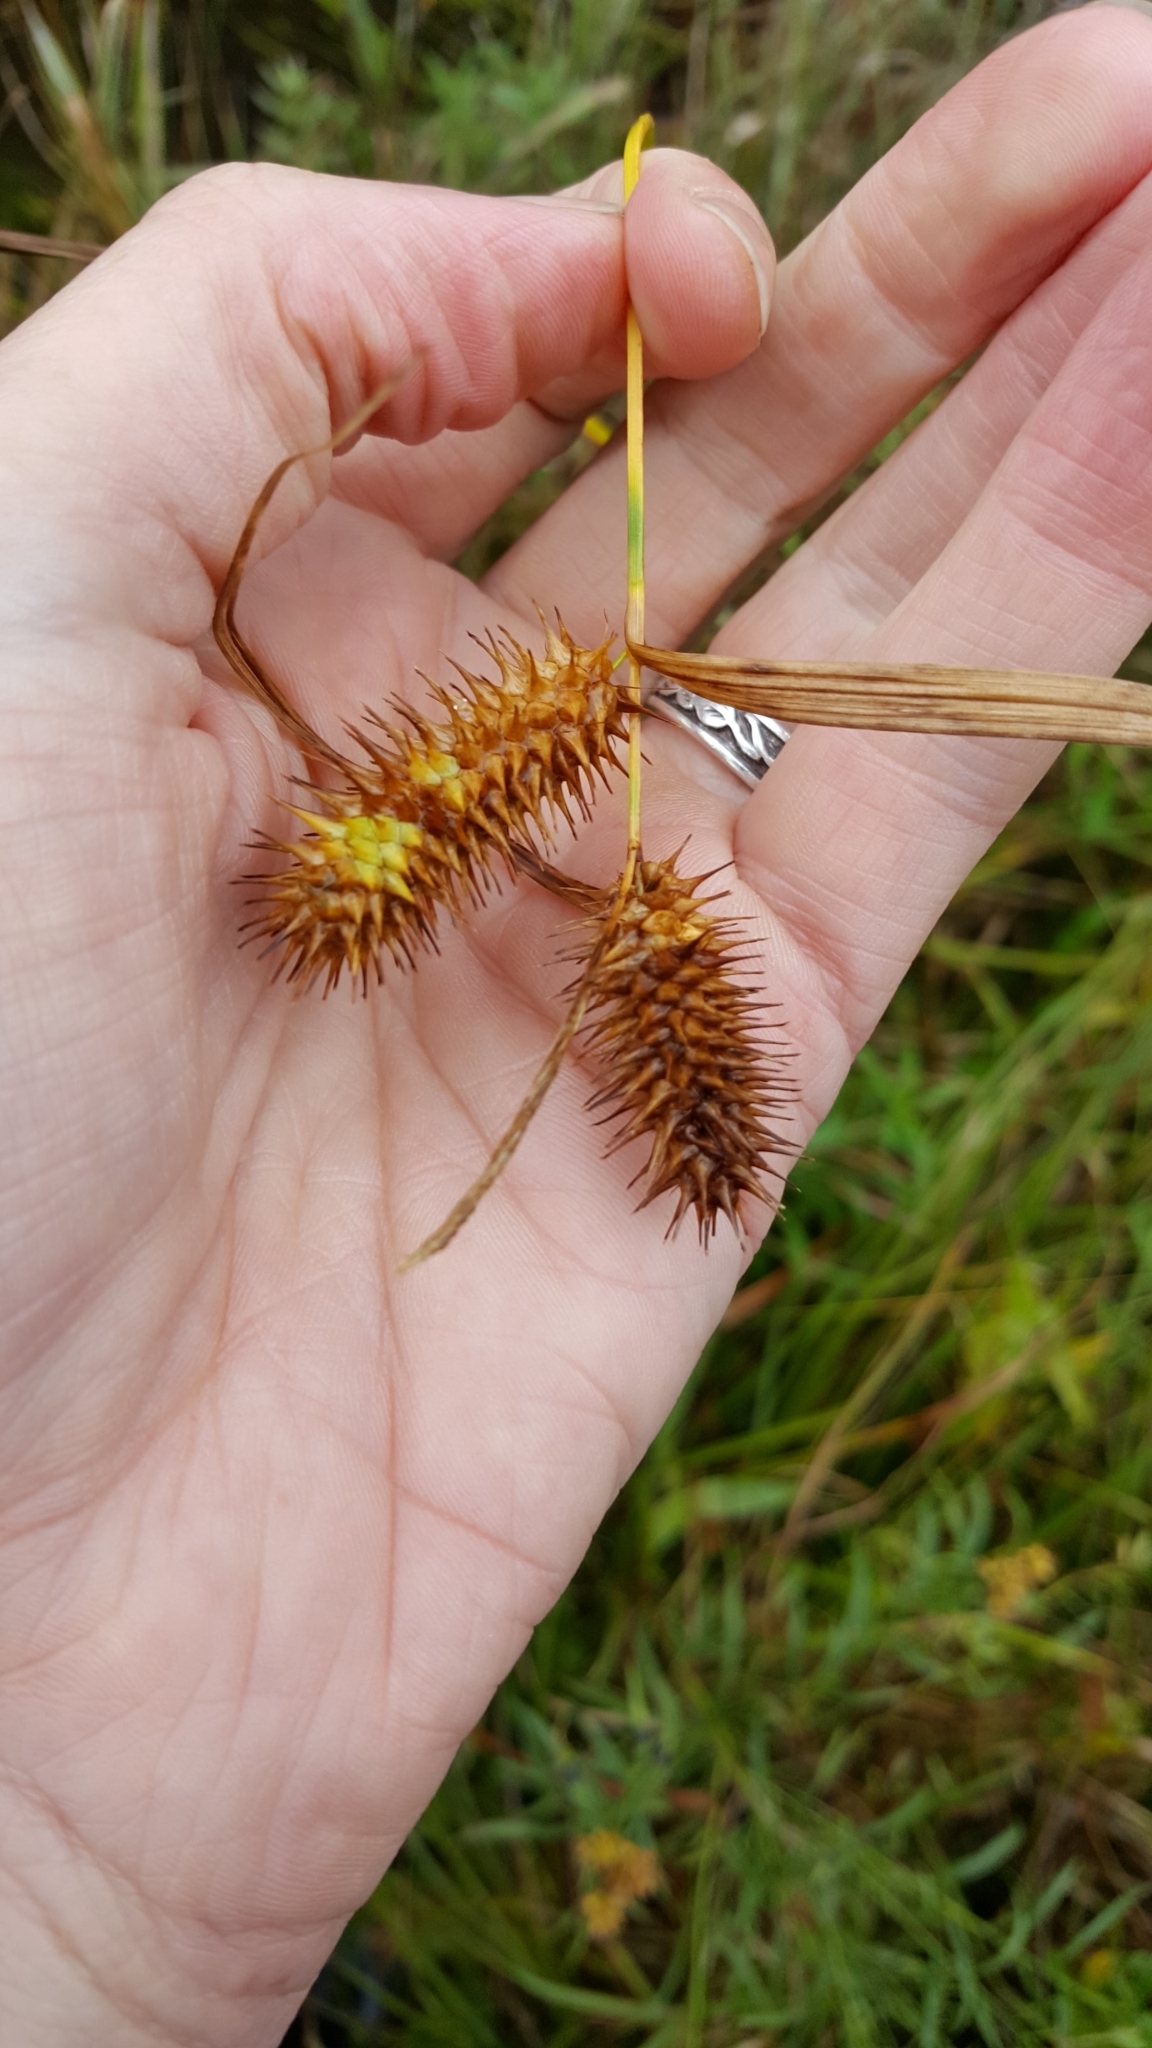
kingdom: Plantae
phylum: Tracheophyta
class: Liliopsida
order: Poales
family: Cyperaceae
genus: Carex
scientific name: Carex lurida
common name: Sallow sedge
